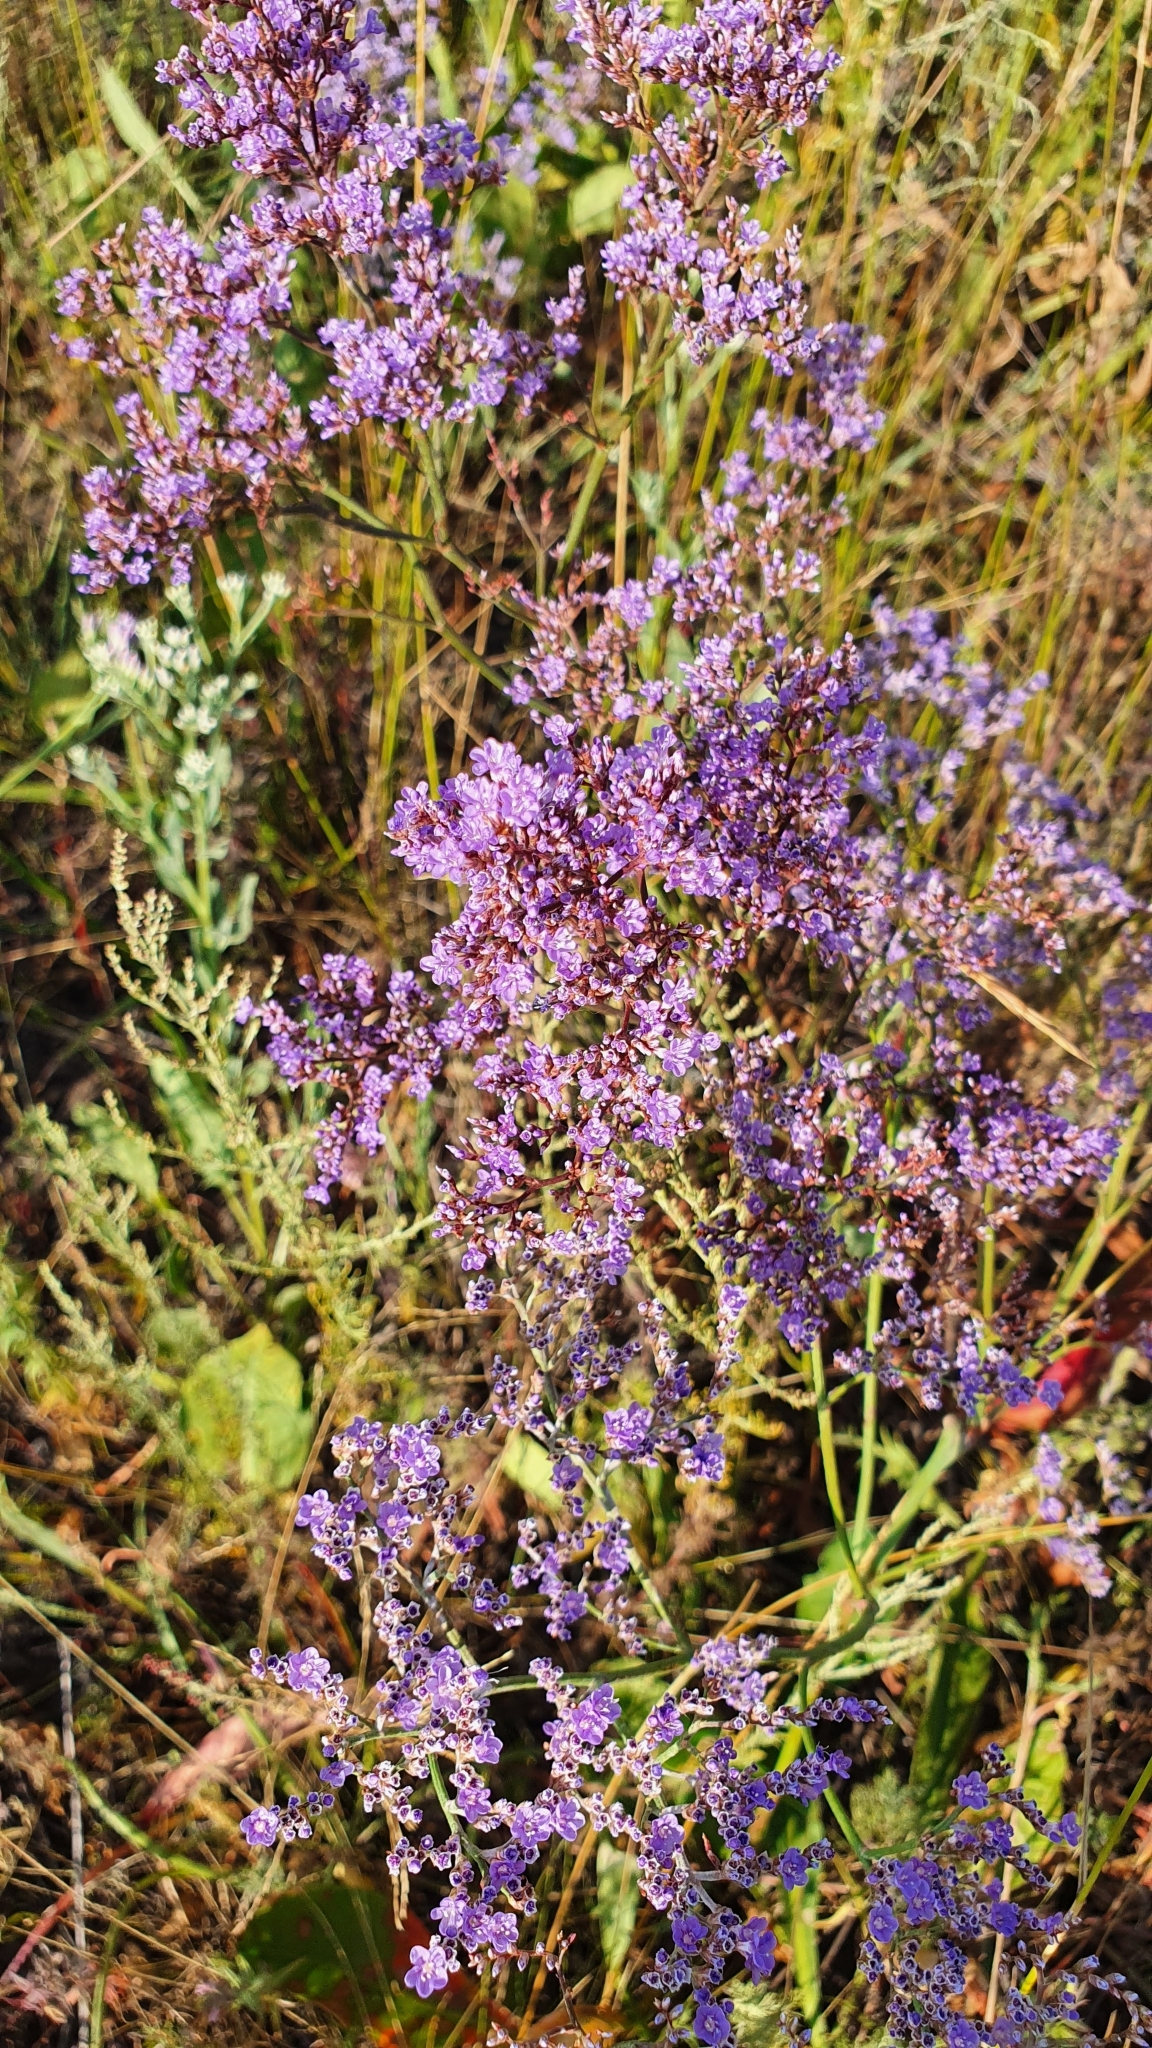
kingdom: Plantae
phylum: Tracheophyta
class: Magnoliopsida
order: Caryophyllales
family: Plumbaginaceae
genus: Limonium
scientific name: Limonium gmelini
